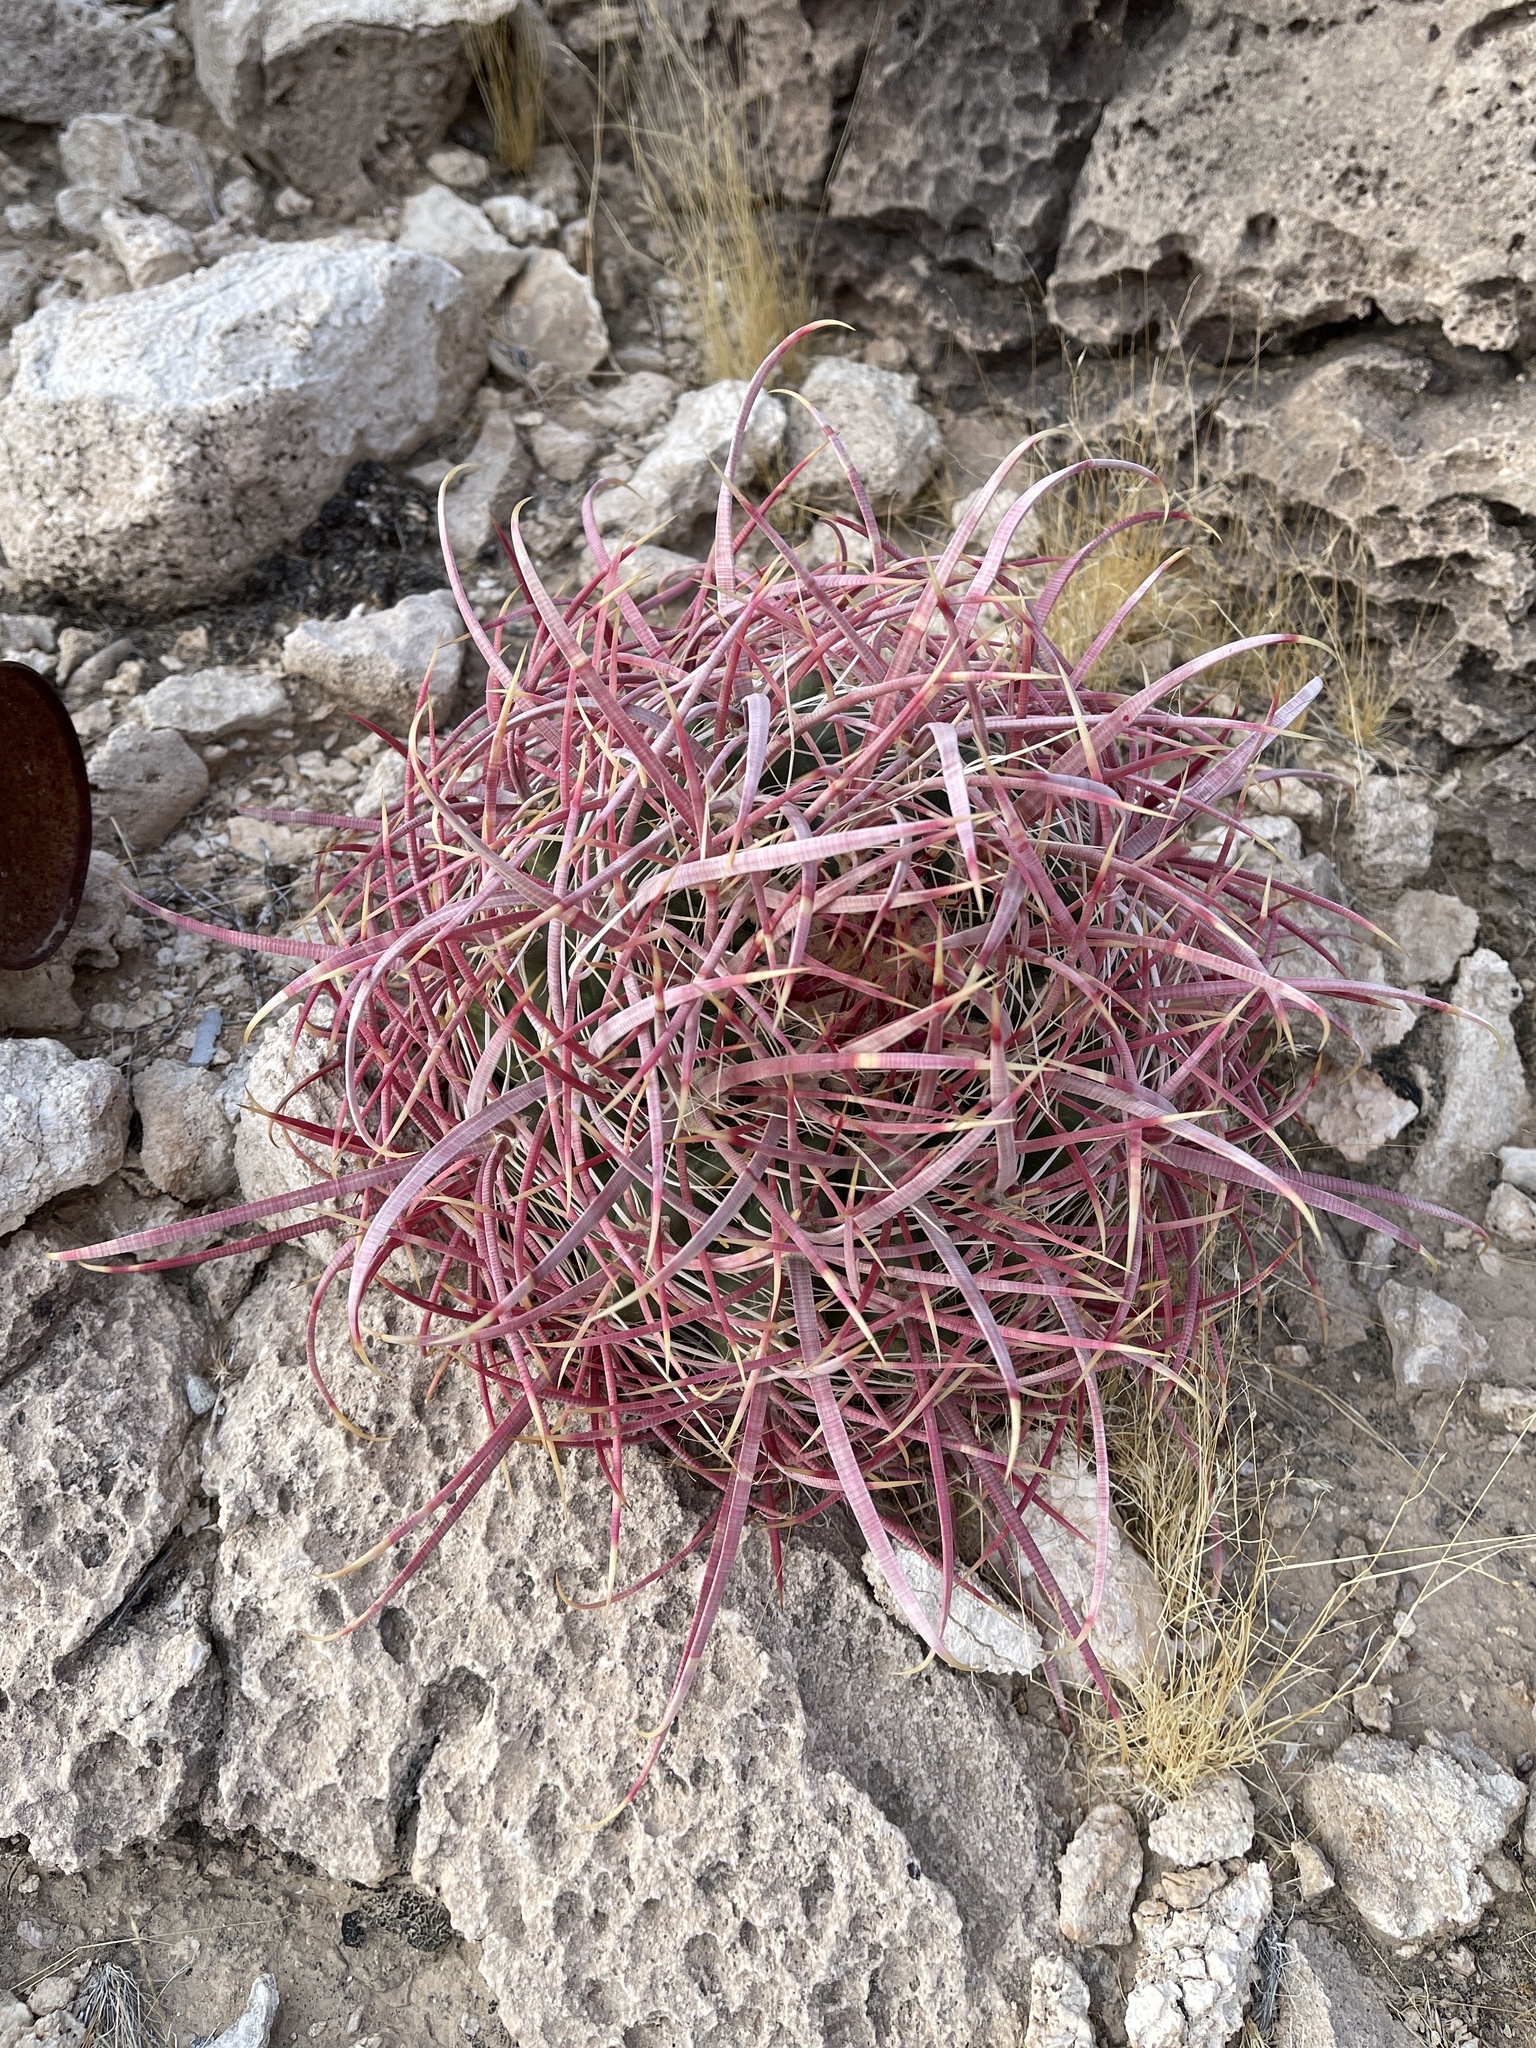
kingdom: Plantae
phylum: Tracheophyta
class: Magnoliopsida
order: Caryophyllales
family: Cactaceae
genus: Ferocactus
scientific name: Ferocactus cylindraceus
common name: California barrel cactus
